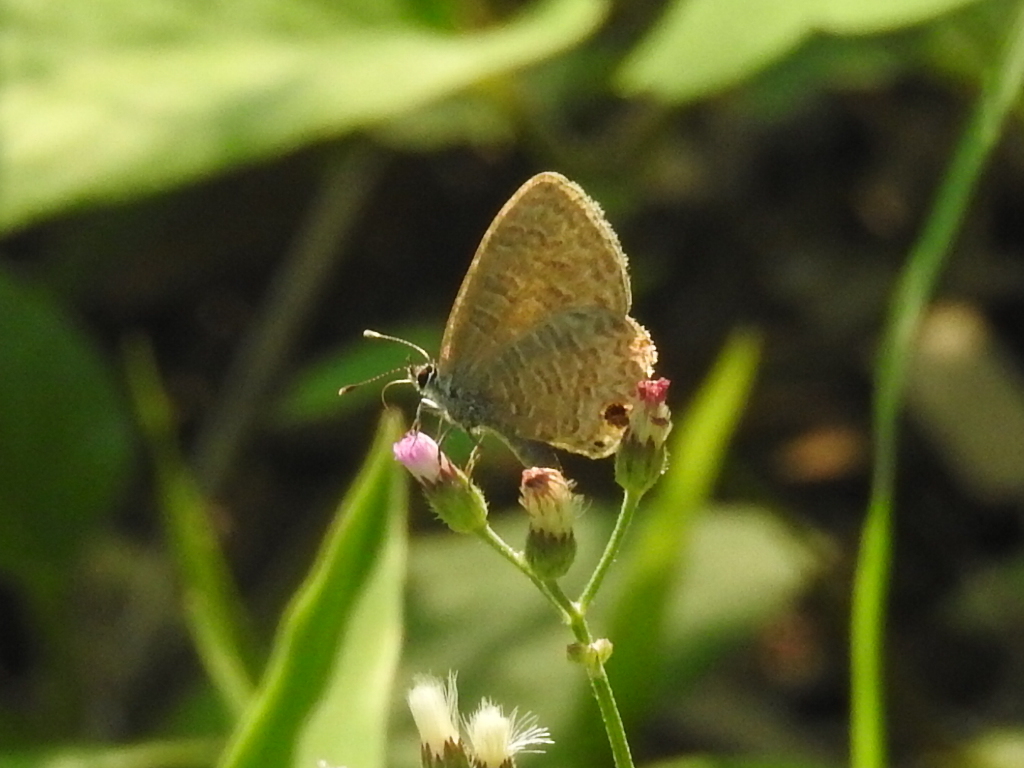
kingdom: Animalia
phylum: Arthropoda
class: Insecta
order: Lepidoptera
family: Lycaenidae
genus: Prosotas
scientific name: Prosotas dubiosa
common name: Tailless lineblue
